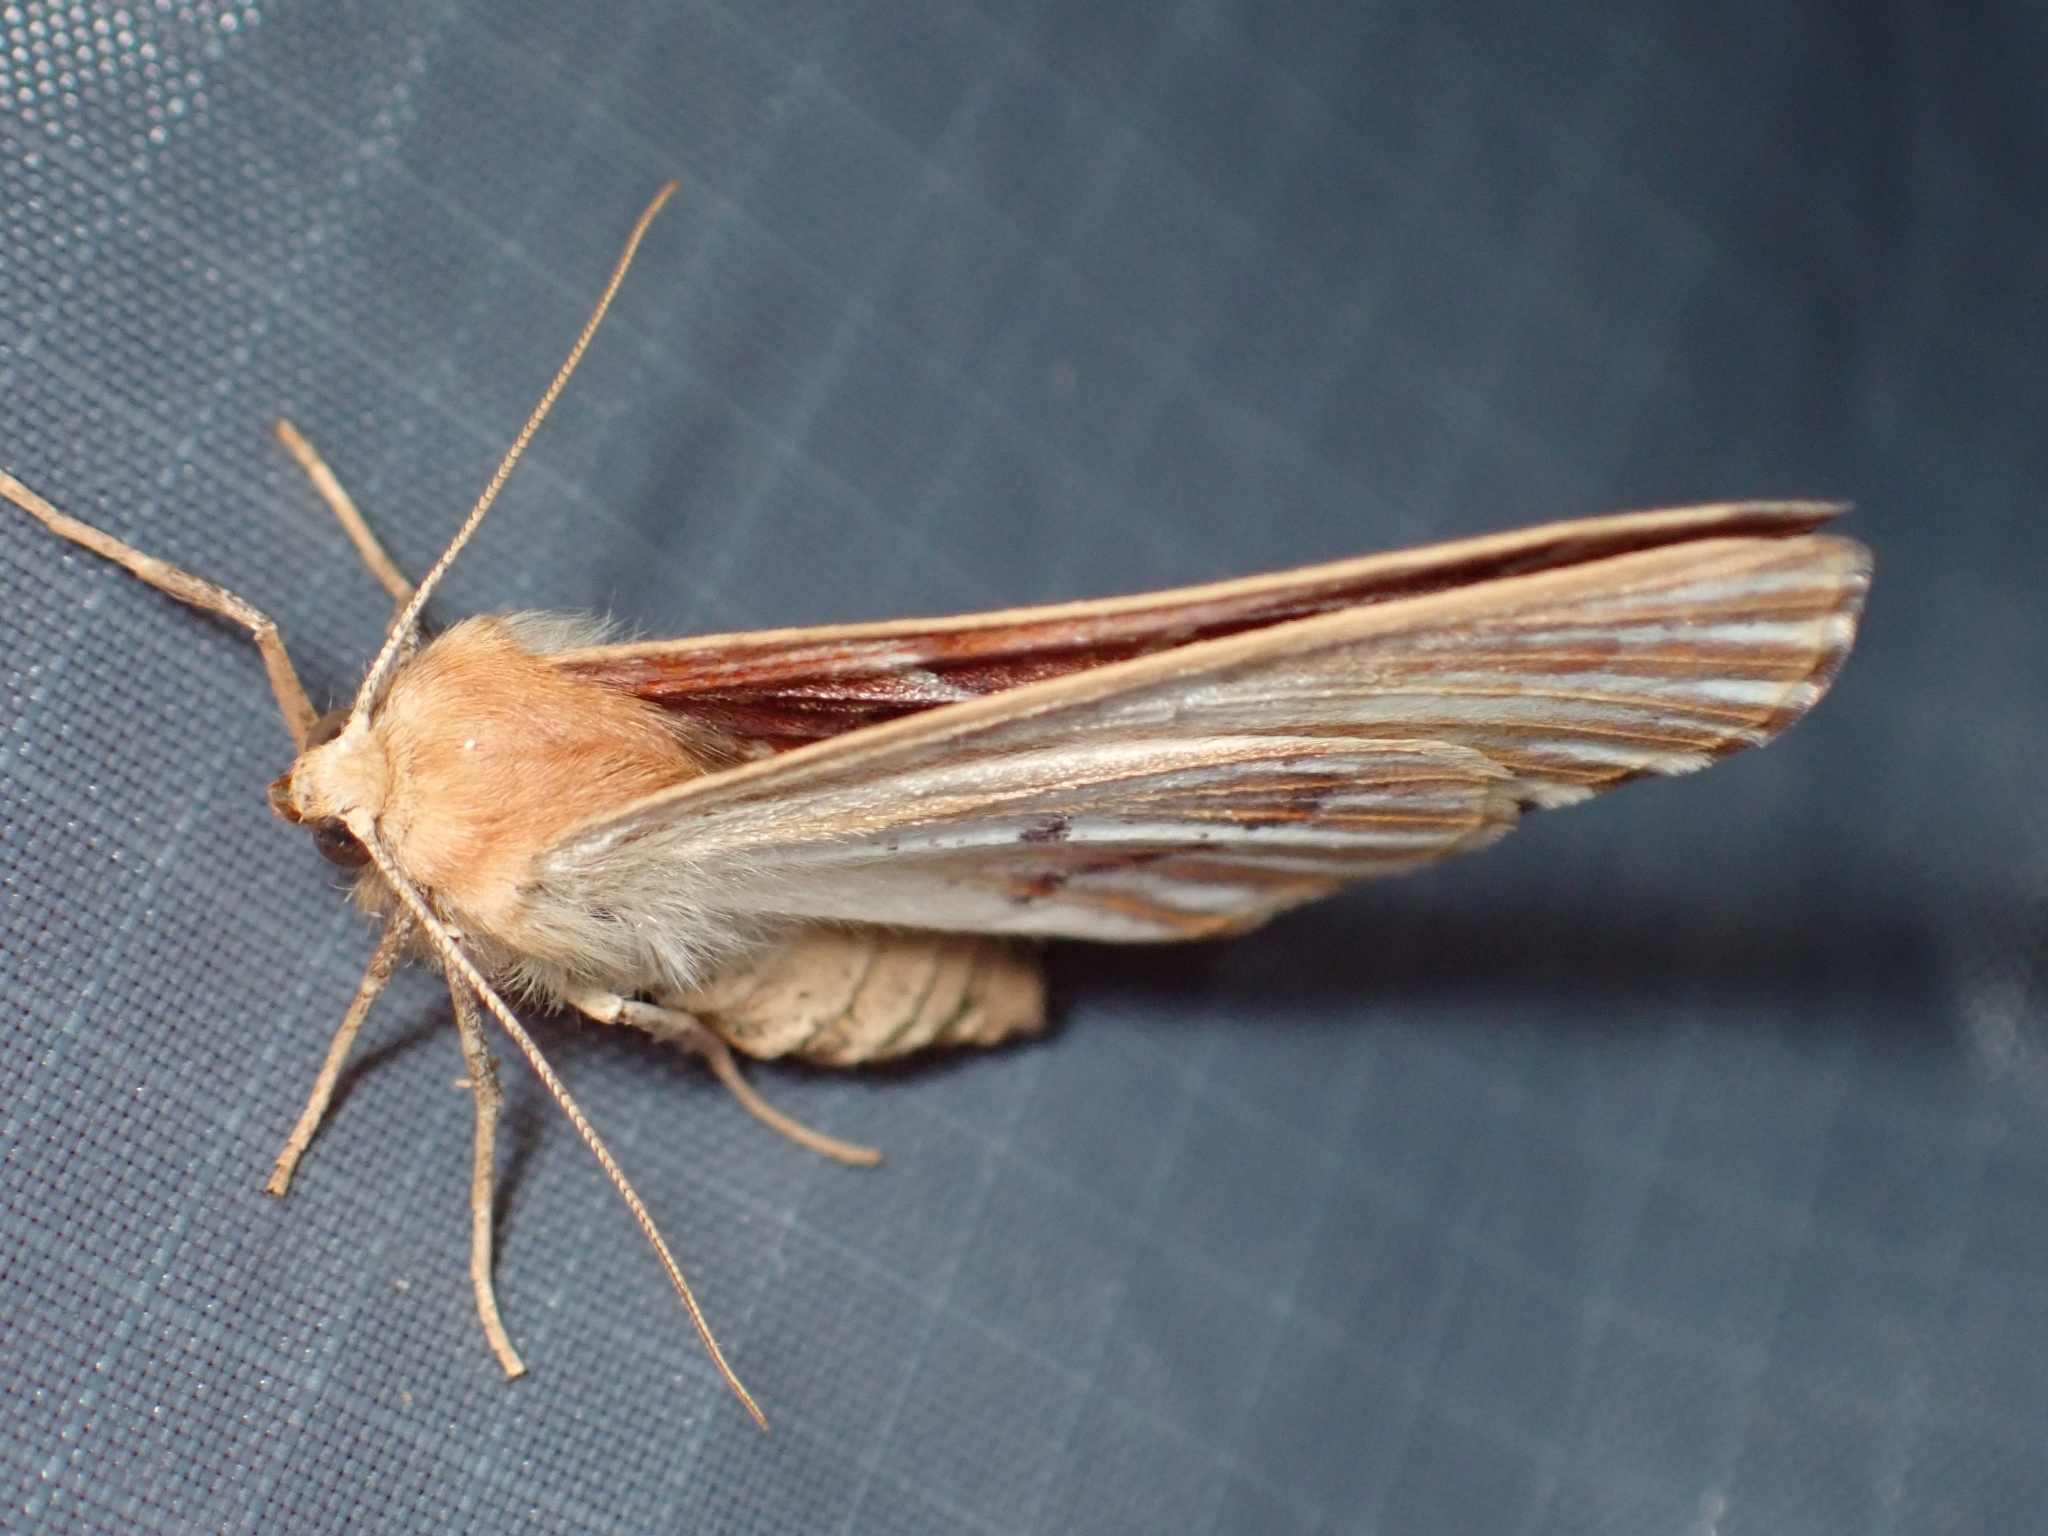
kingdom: Animalia
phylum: Arthropoda
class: Insecta
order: Lepidoptera
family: Geometridae
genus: Caripeta
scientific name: Caripeta aequaliaria
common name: Red girdle moth
